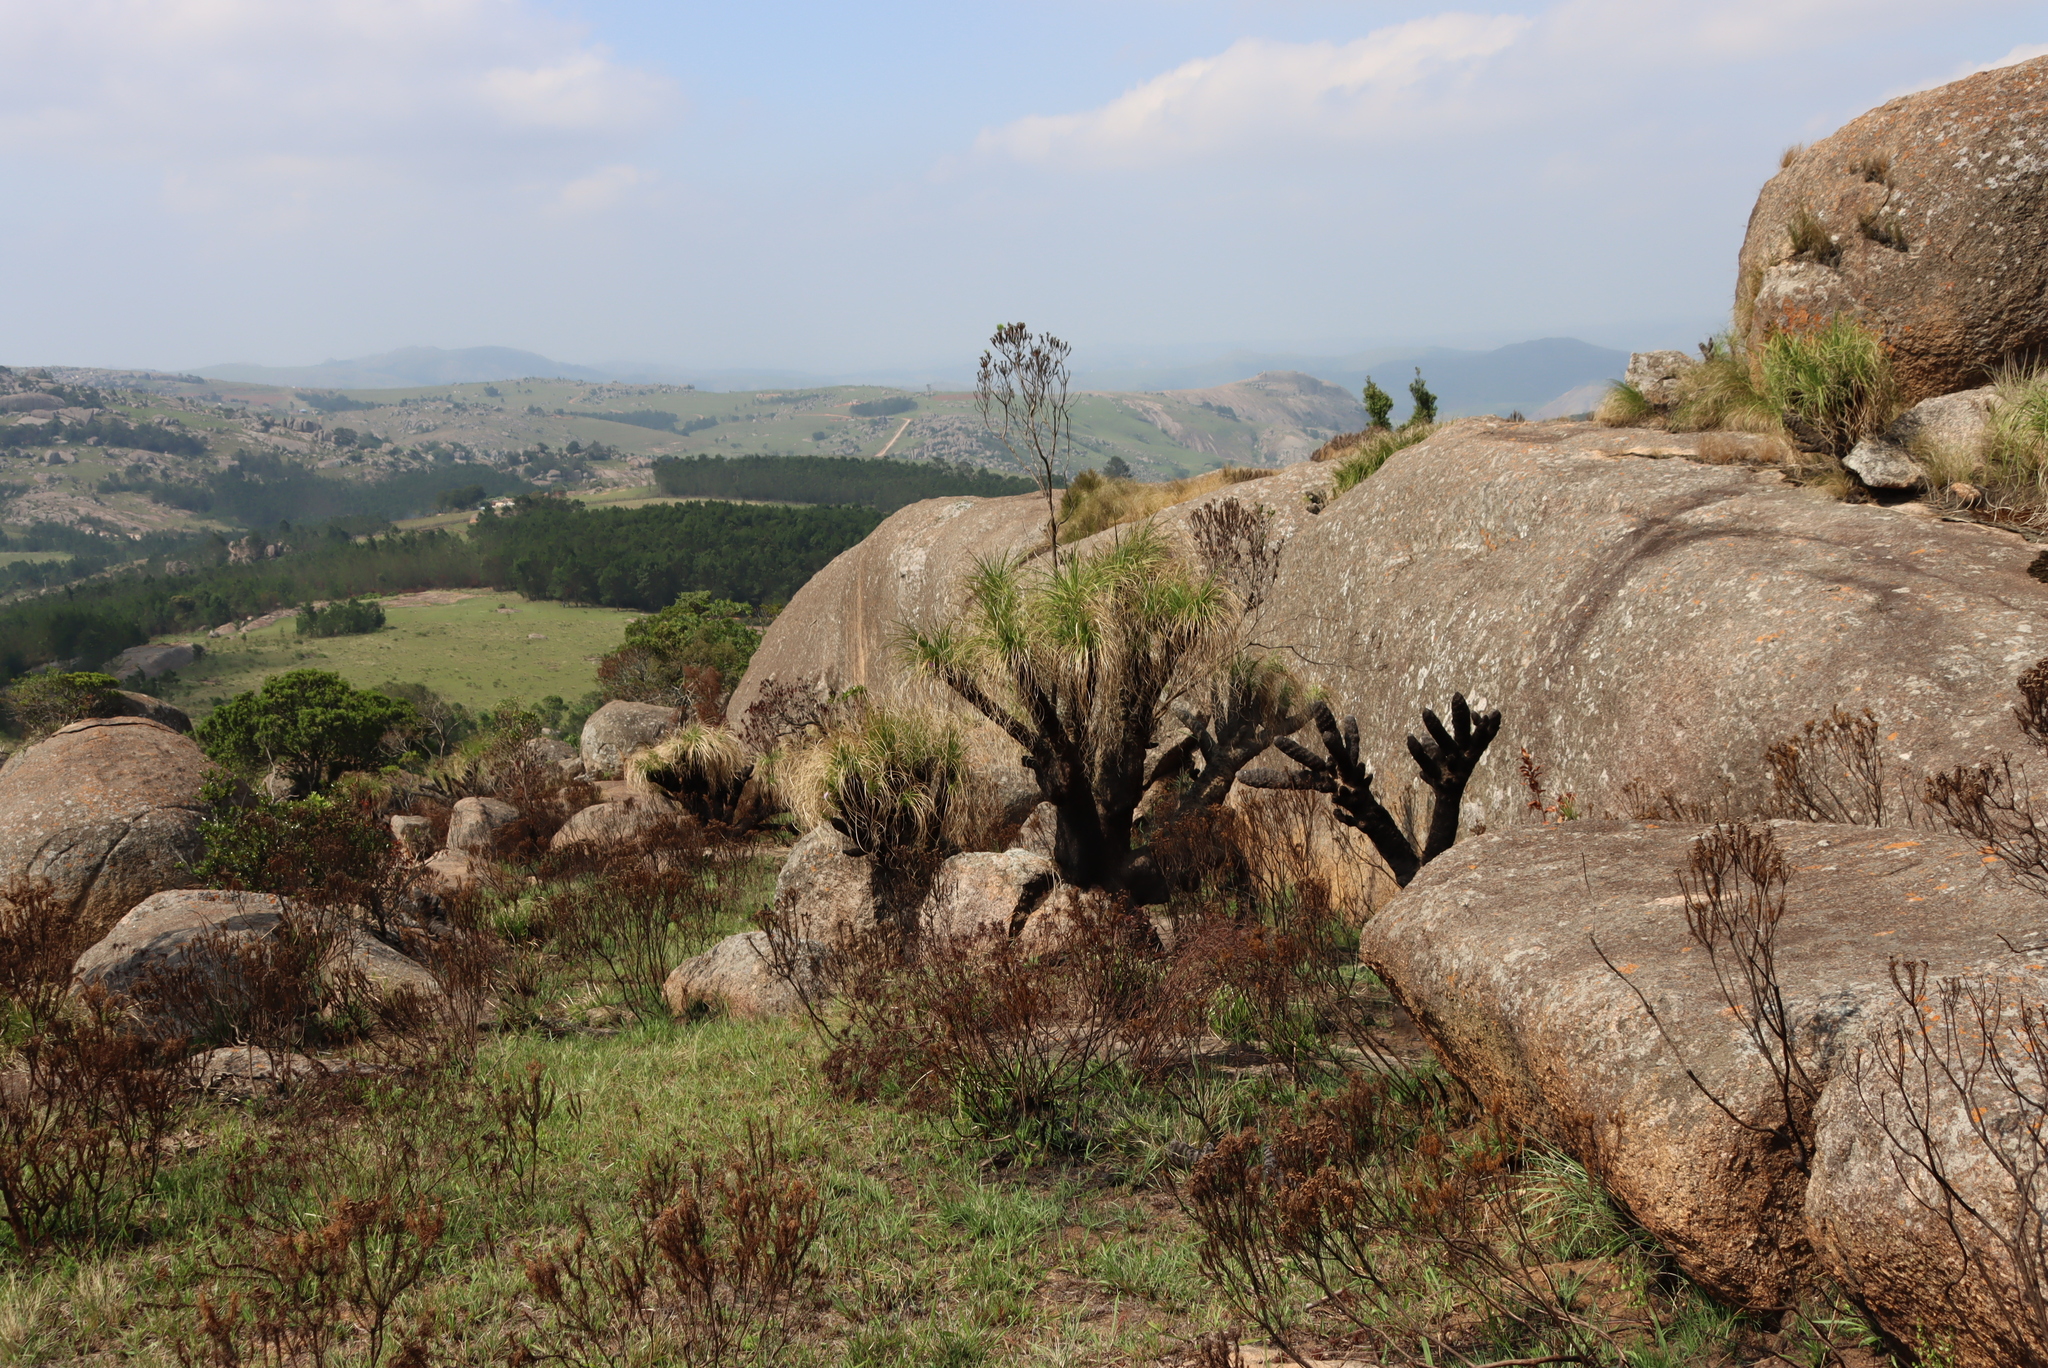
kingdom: Plantae
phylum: Tracheophyta
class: Liliopsida
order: Pandanales
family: Velloziaceae
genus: Xerophyta
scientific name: Xerophyta retinervis
